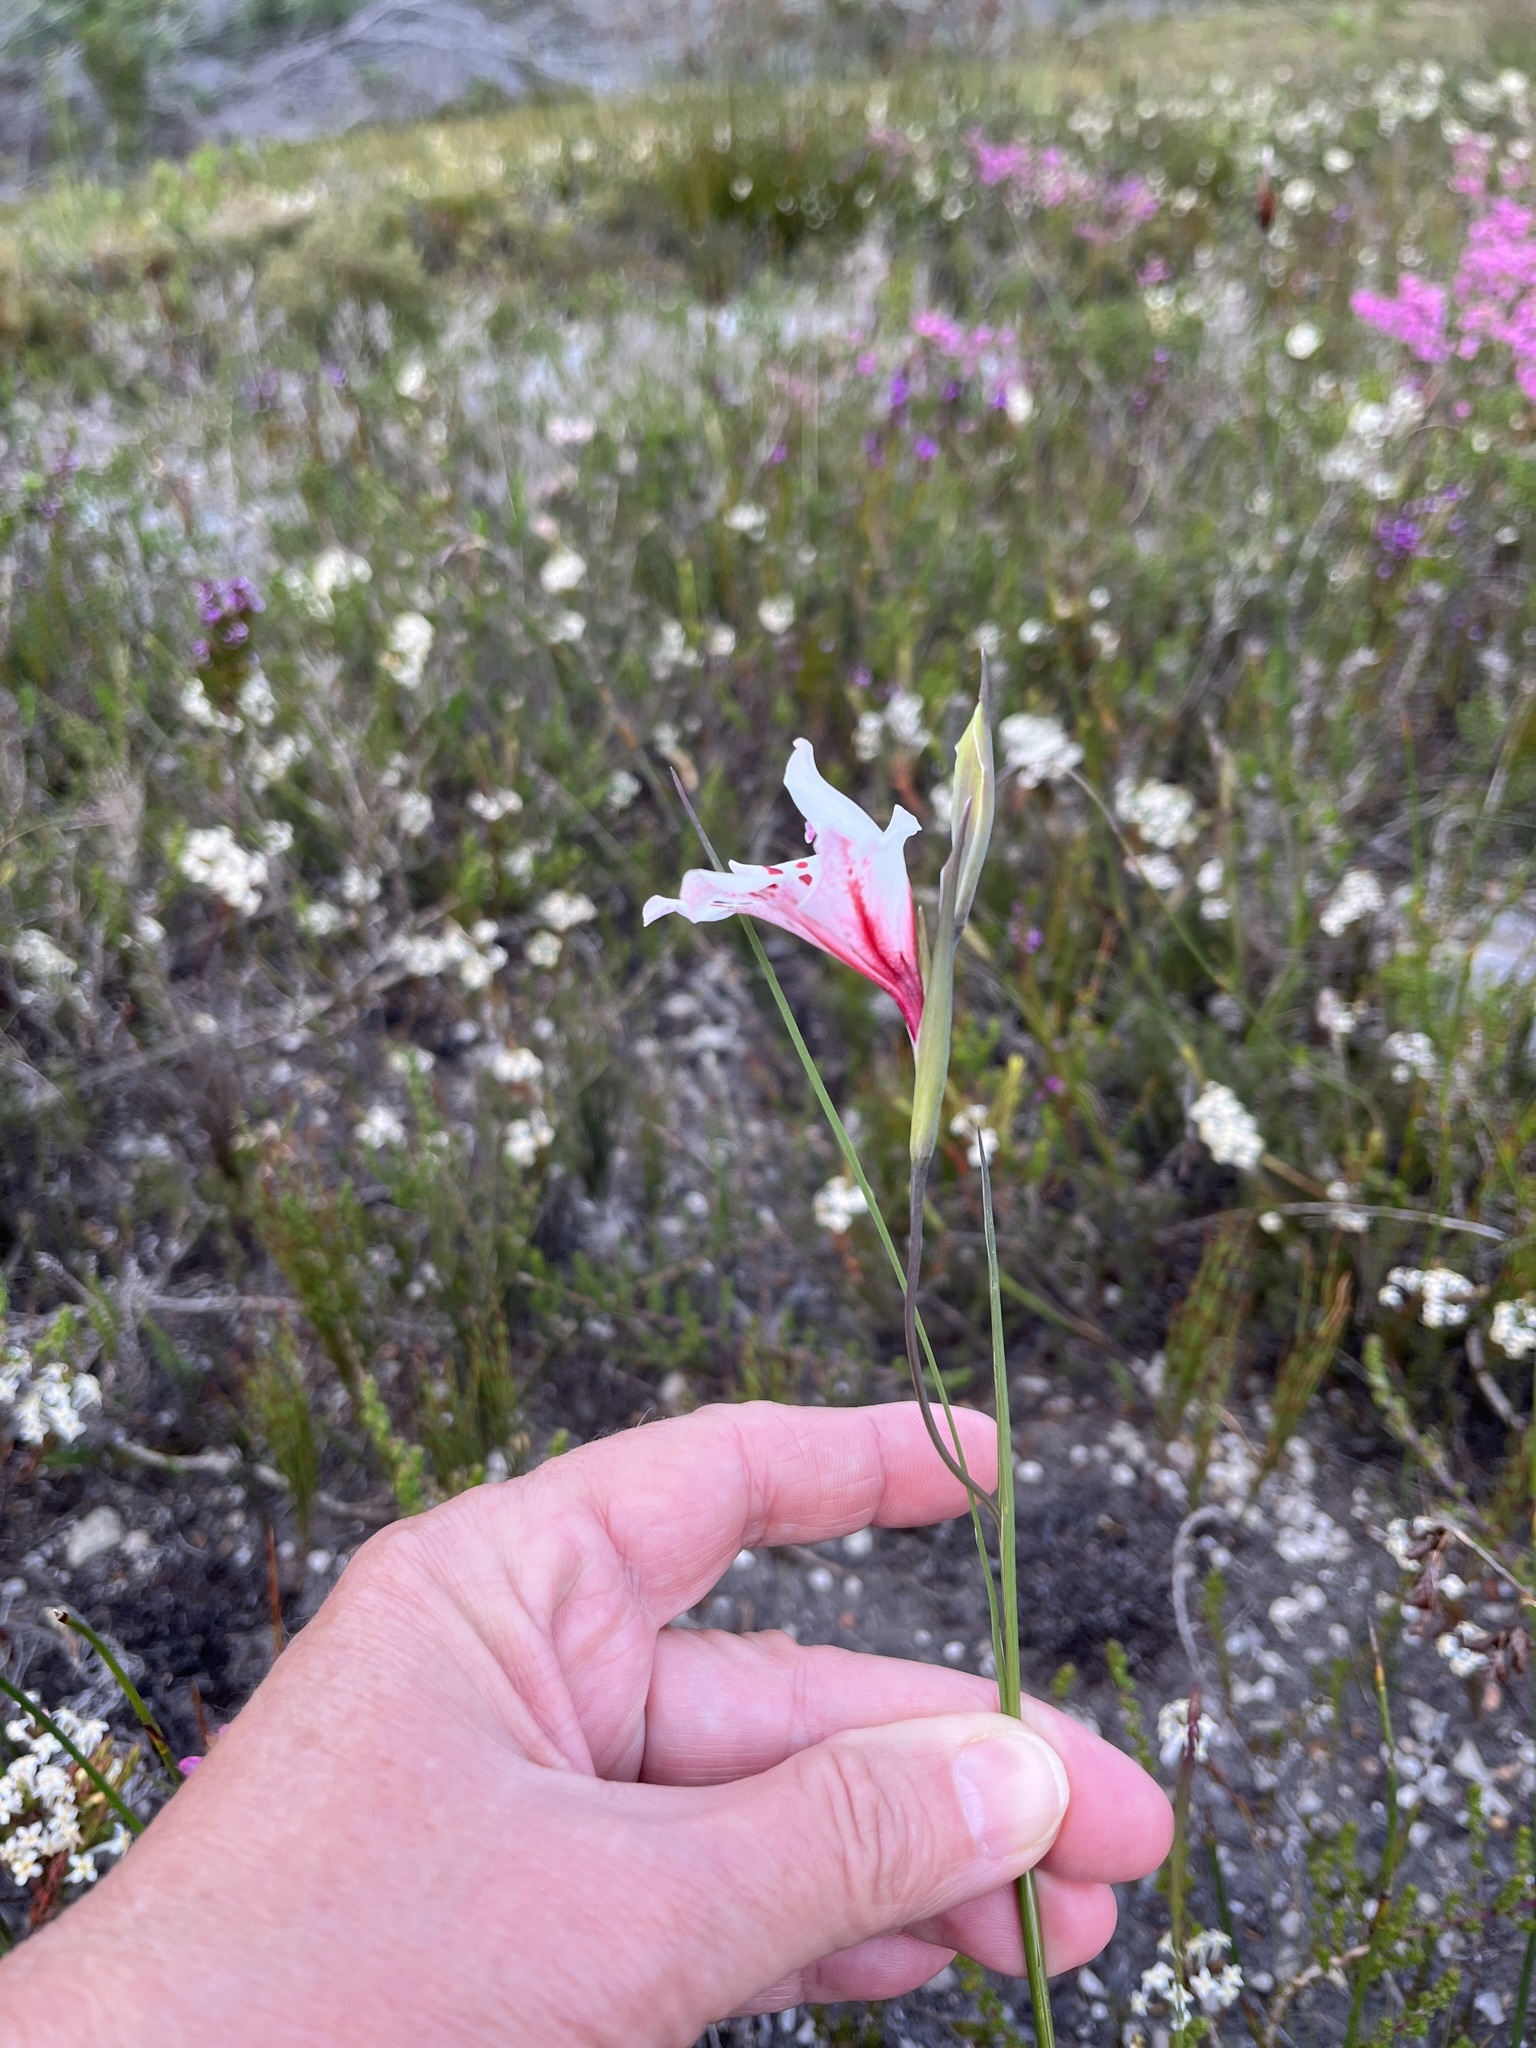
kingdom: Plantae
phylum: Tracheophyta
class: Liliopsida
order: Asparagales
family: Iridaceae
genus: Gladiolus
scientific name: Gladiolus variegatus
